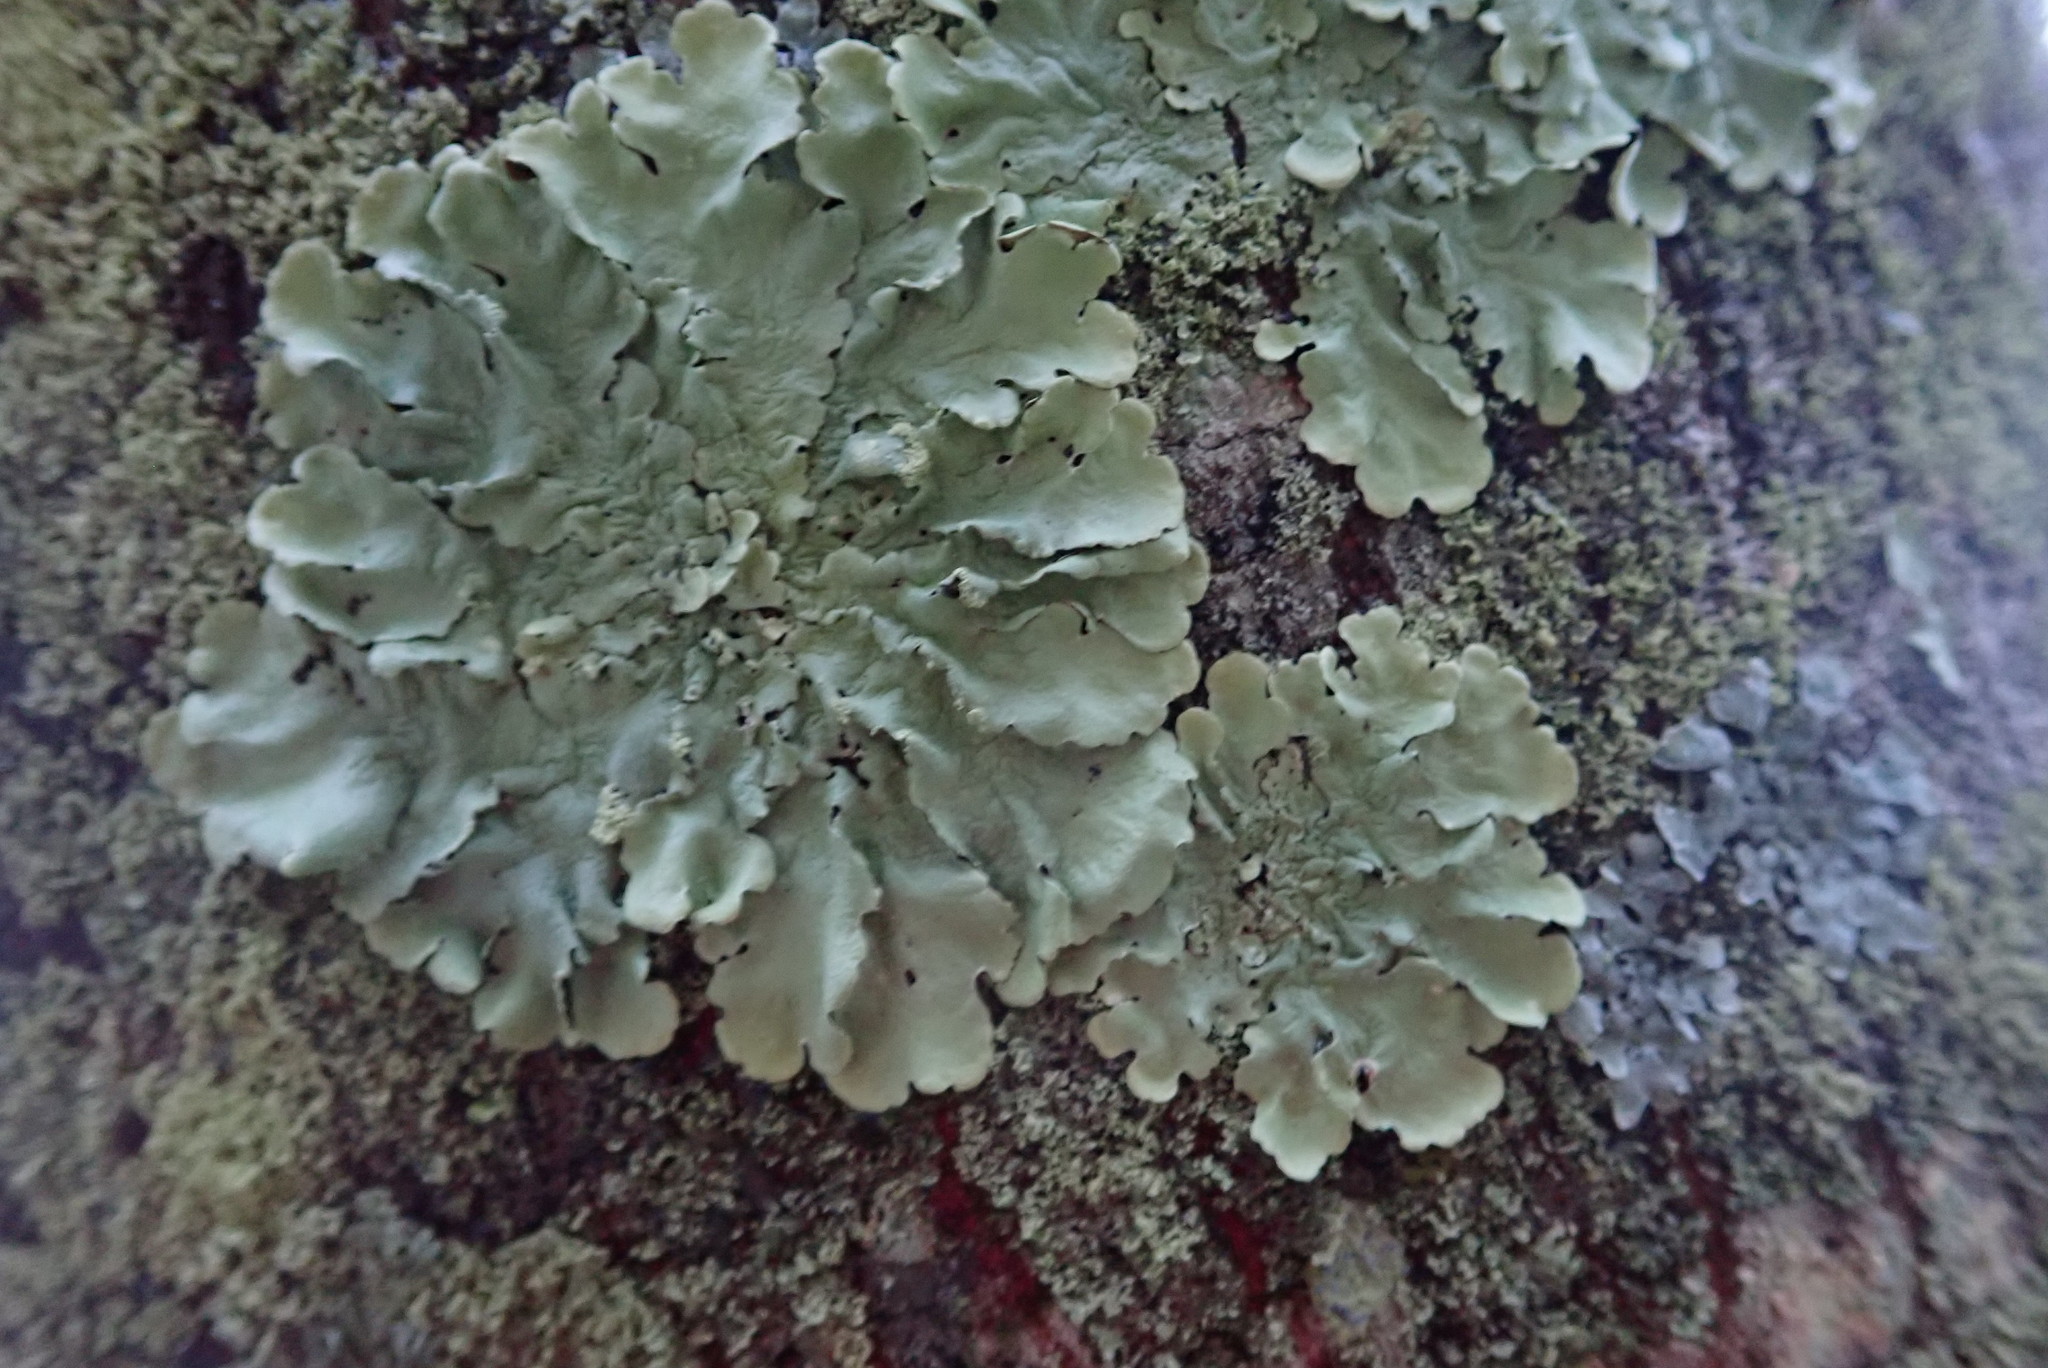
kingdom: Fungi
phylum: Ascomycota
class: Lecanoromycetes
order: Lecanorales
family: Parmeliaceae
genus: Flavoparmelia
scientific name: Flavoparmelia caperata
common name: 40-mile per hour lichen
